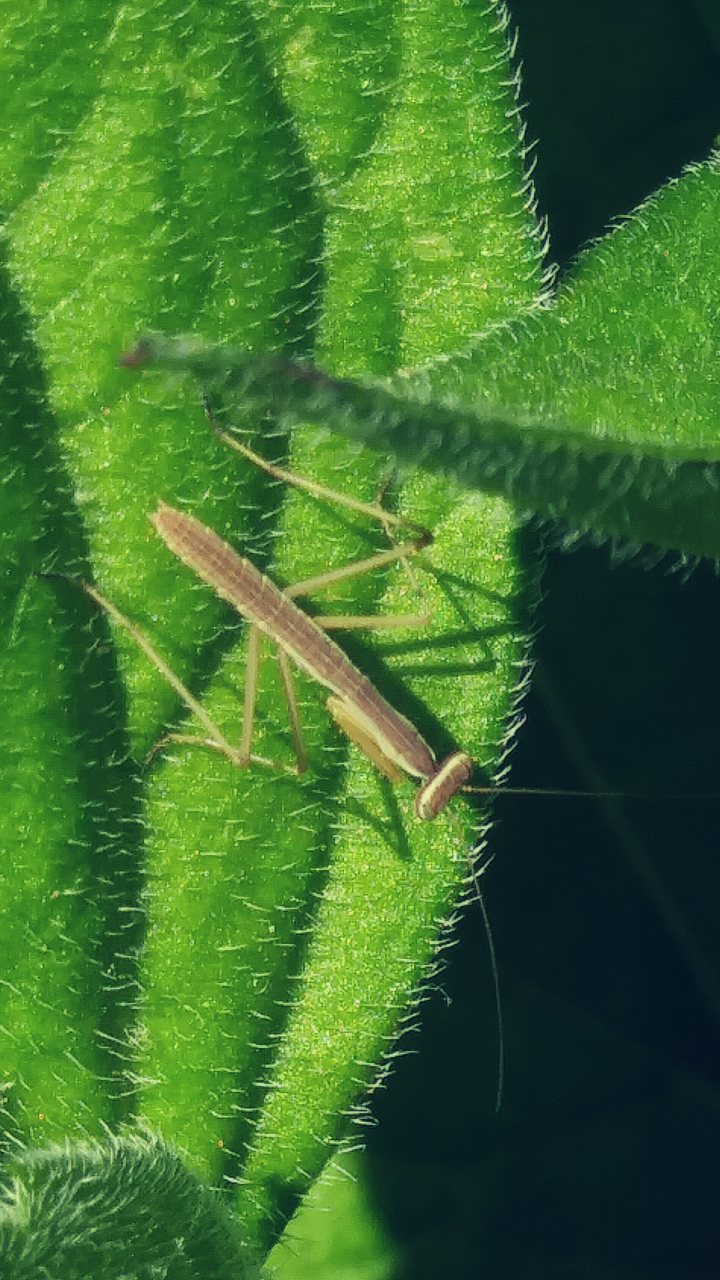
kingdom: Animalia
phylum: Arthropoda
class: Insecta
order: Mantodea
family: Mantidae
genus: Tenodera
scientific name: Tenodera sinensis
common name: Chinese mantis
